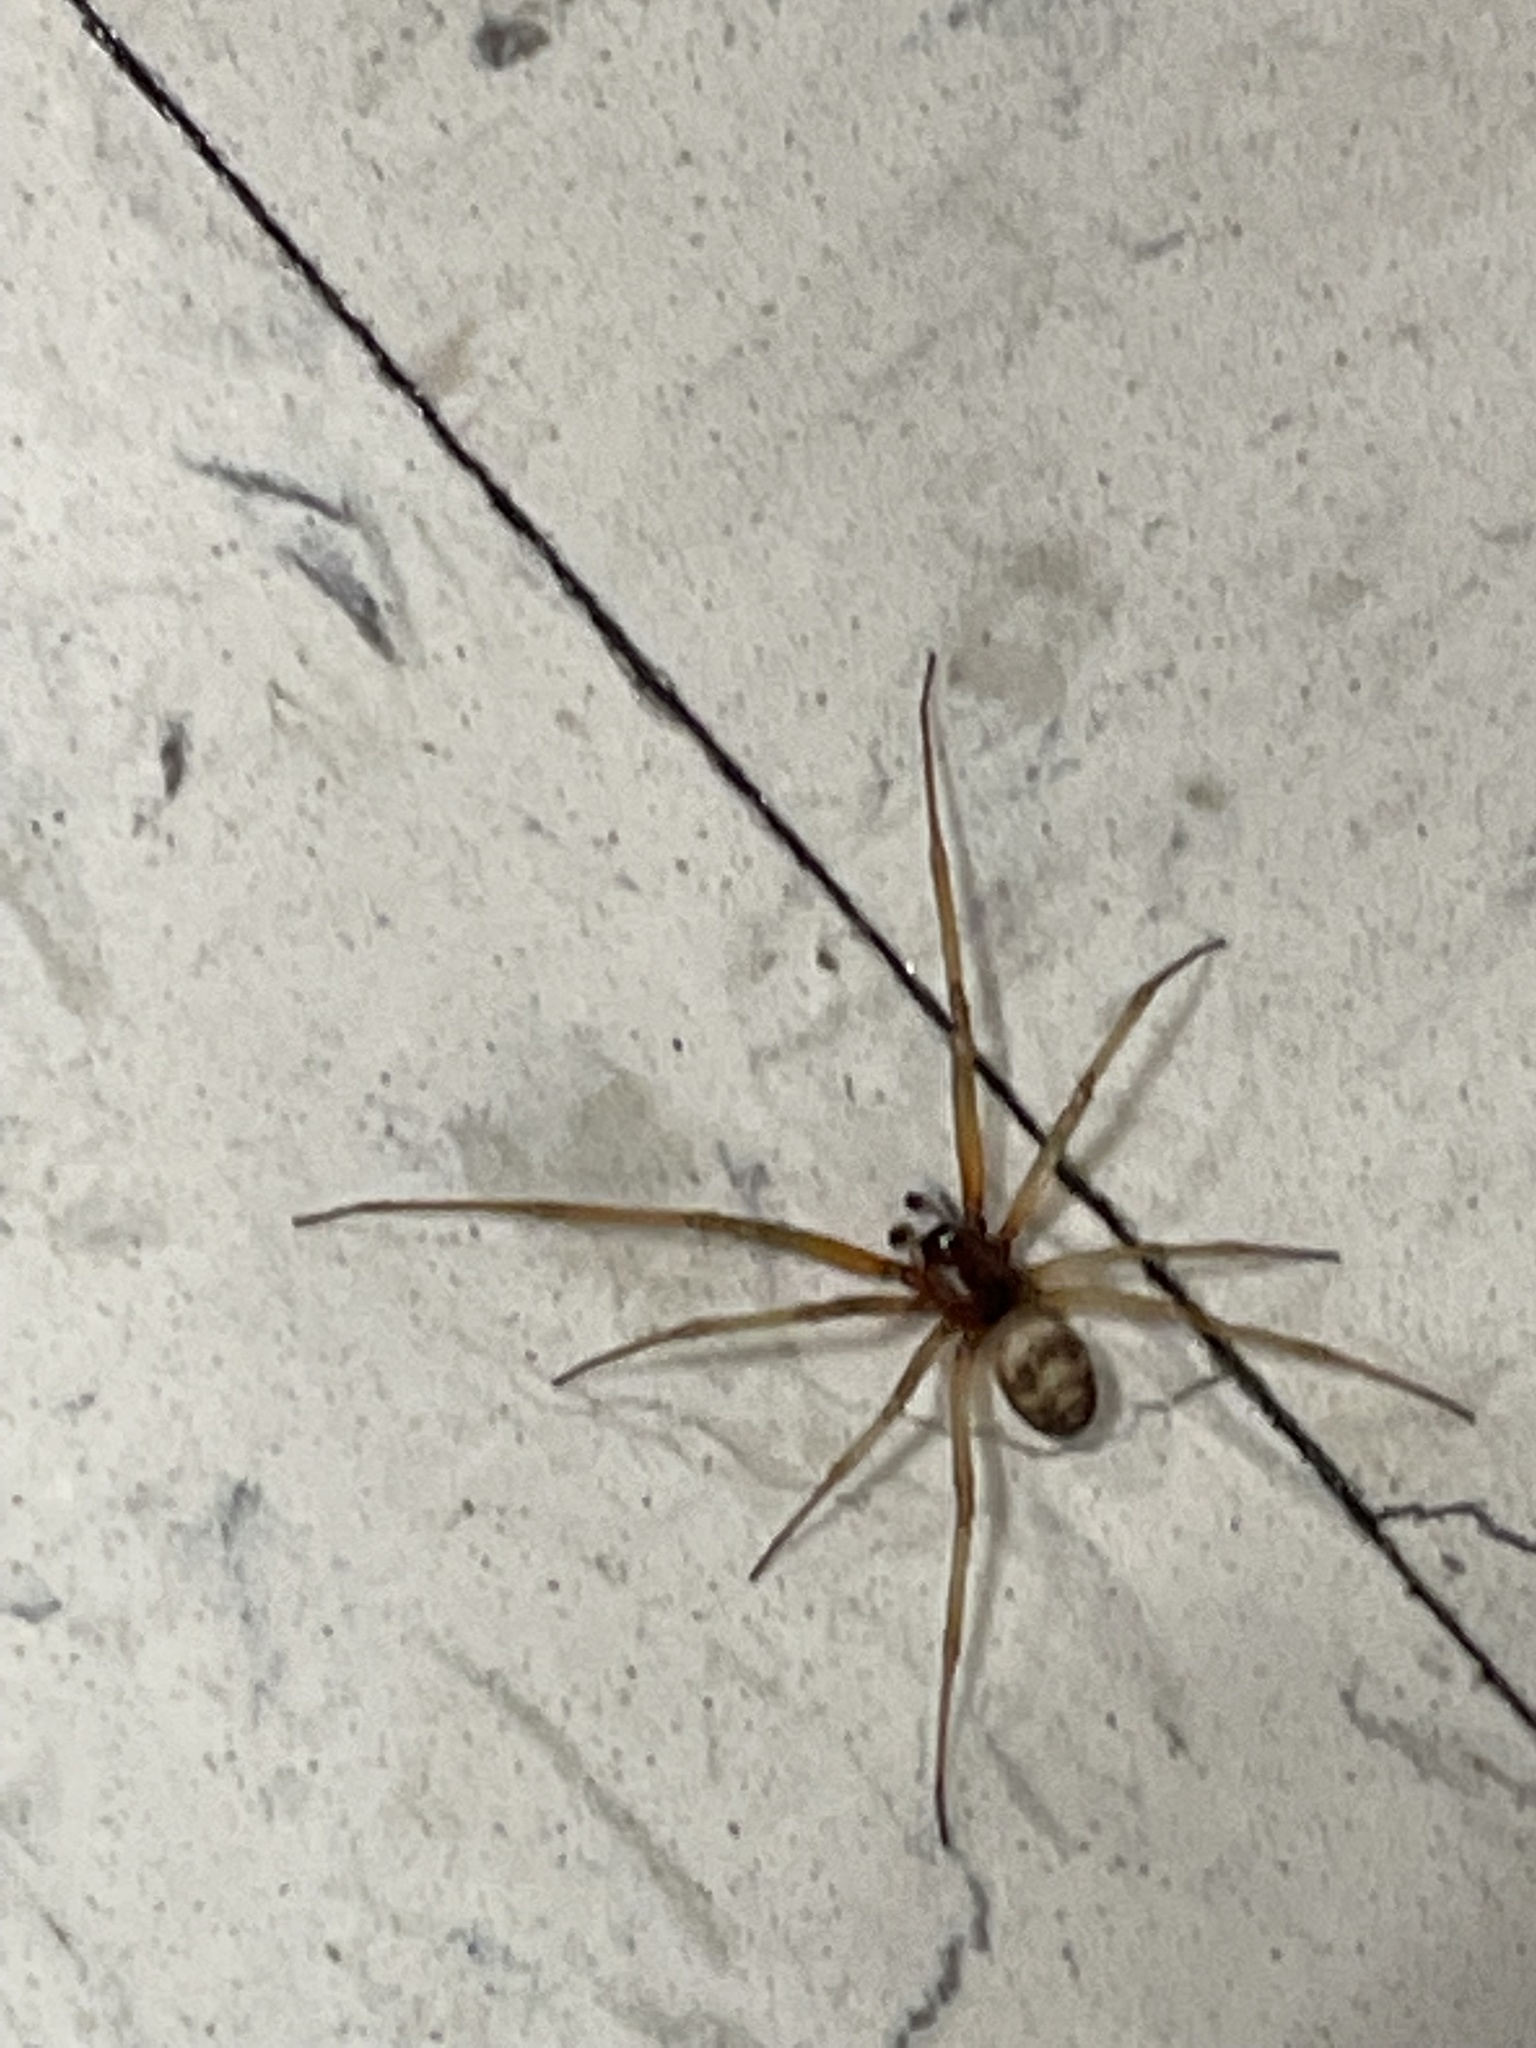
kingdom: Animalia
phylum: Arthropoda
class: Arachnida
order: Araneae
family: Theridiidae
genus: Steatoda
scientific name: Steatoda grossa
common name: False black widow
